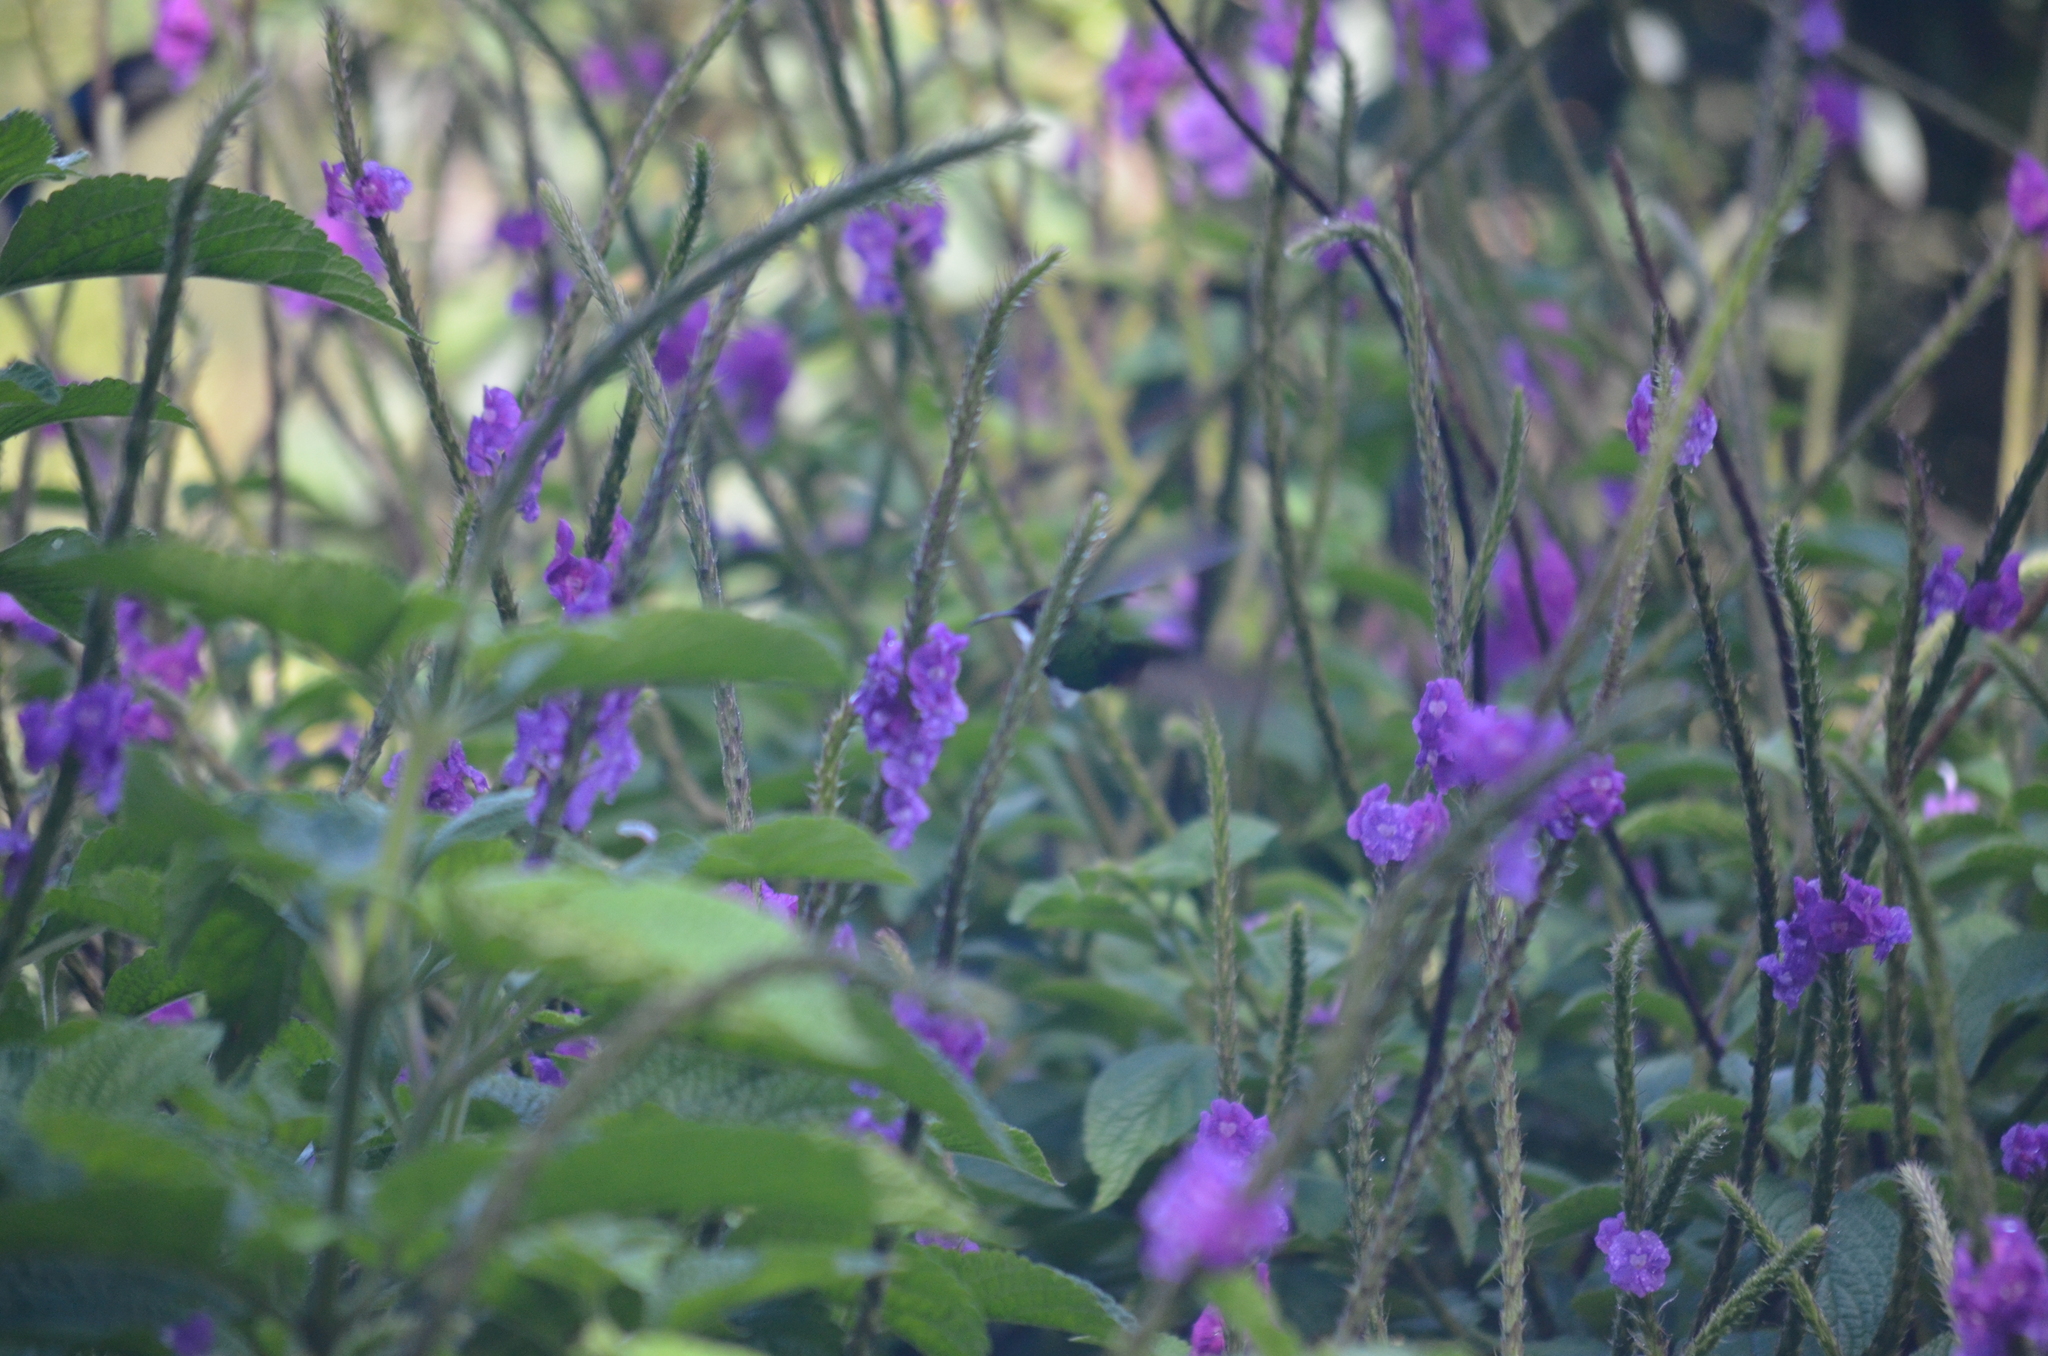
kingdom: Animalia
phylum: Chordata
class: Aves
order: Apodiformes
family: Trochilidae
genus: Microchera
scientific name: Microchera cupreiceps
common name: Coppery-headed emerald
